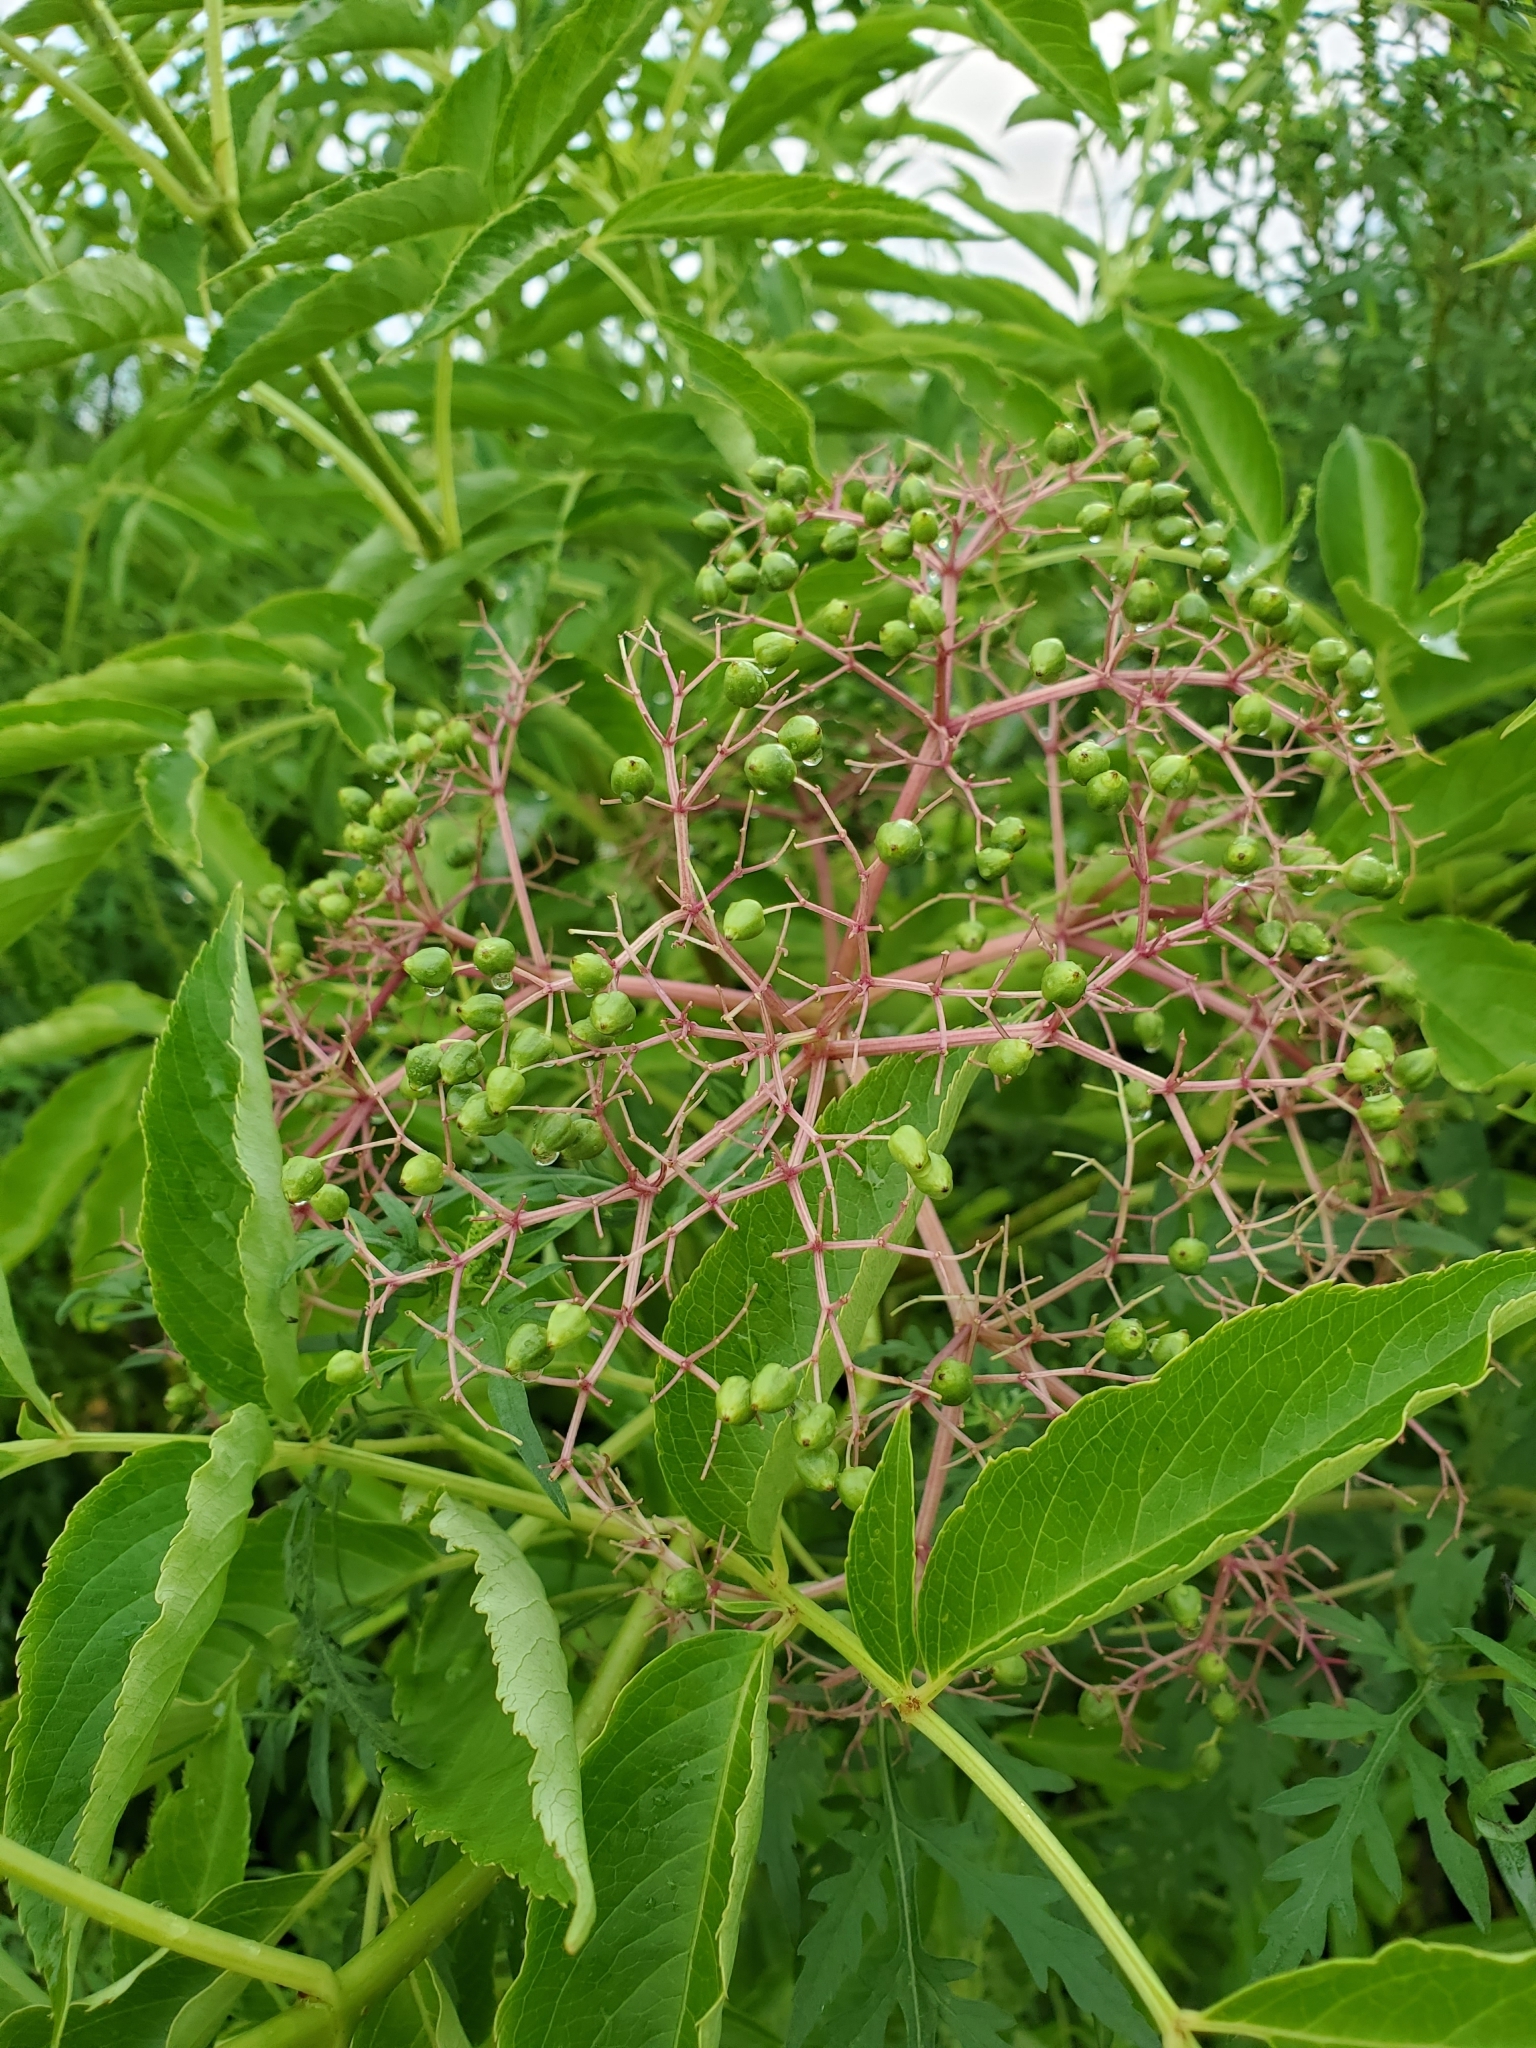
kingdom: Plantae
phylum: Tracheophyta
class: Magnoliopsida
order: Dipsacales
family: Viburnaceae
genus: Sambucus
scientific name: Sambucus canadensis
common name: American elder
